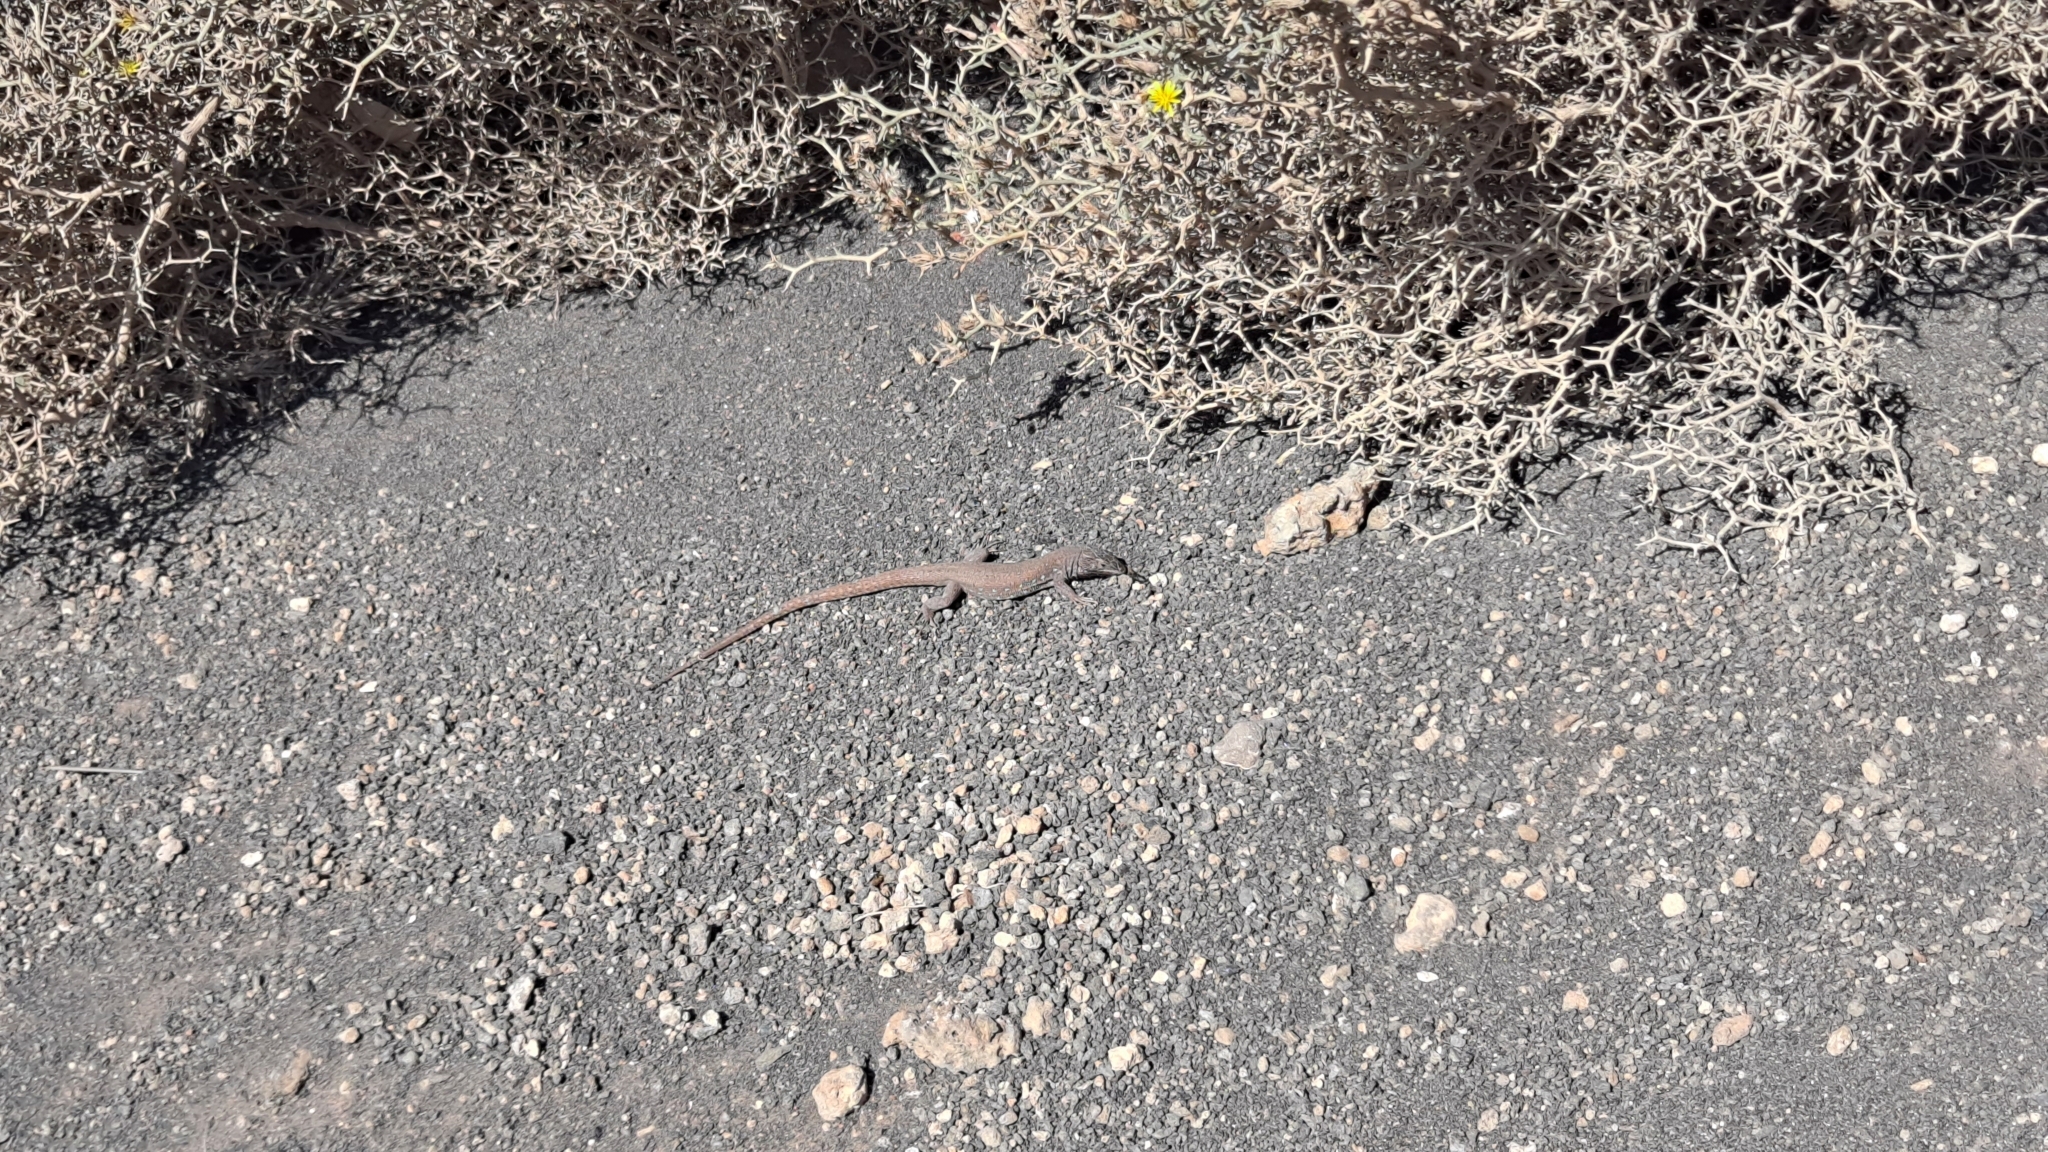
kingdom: Animalia
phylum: Chordata
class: Squamata
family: Lacertidae
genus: Gallotia
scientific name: Gallotia atlantica
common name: Atlantic lizard
